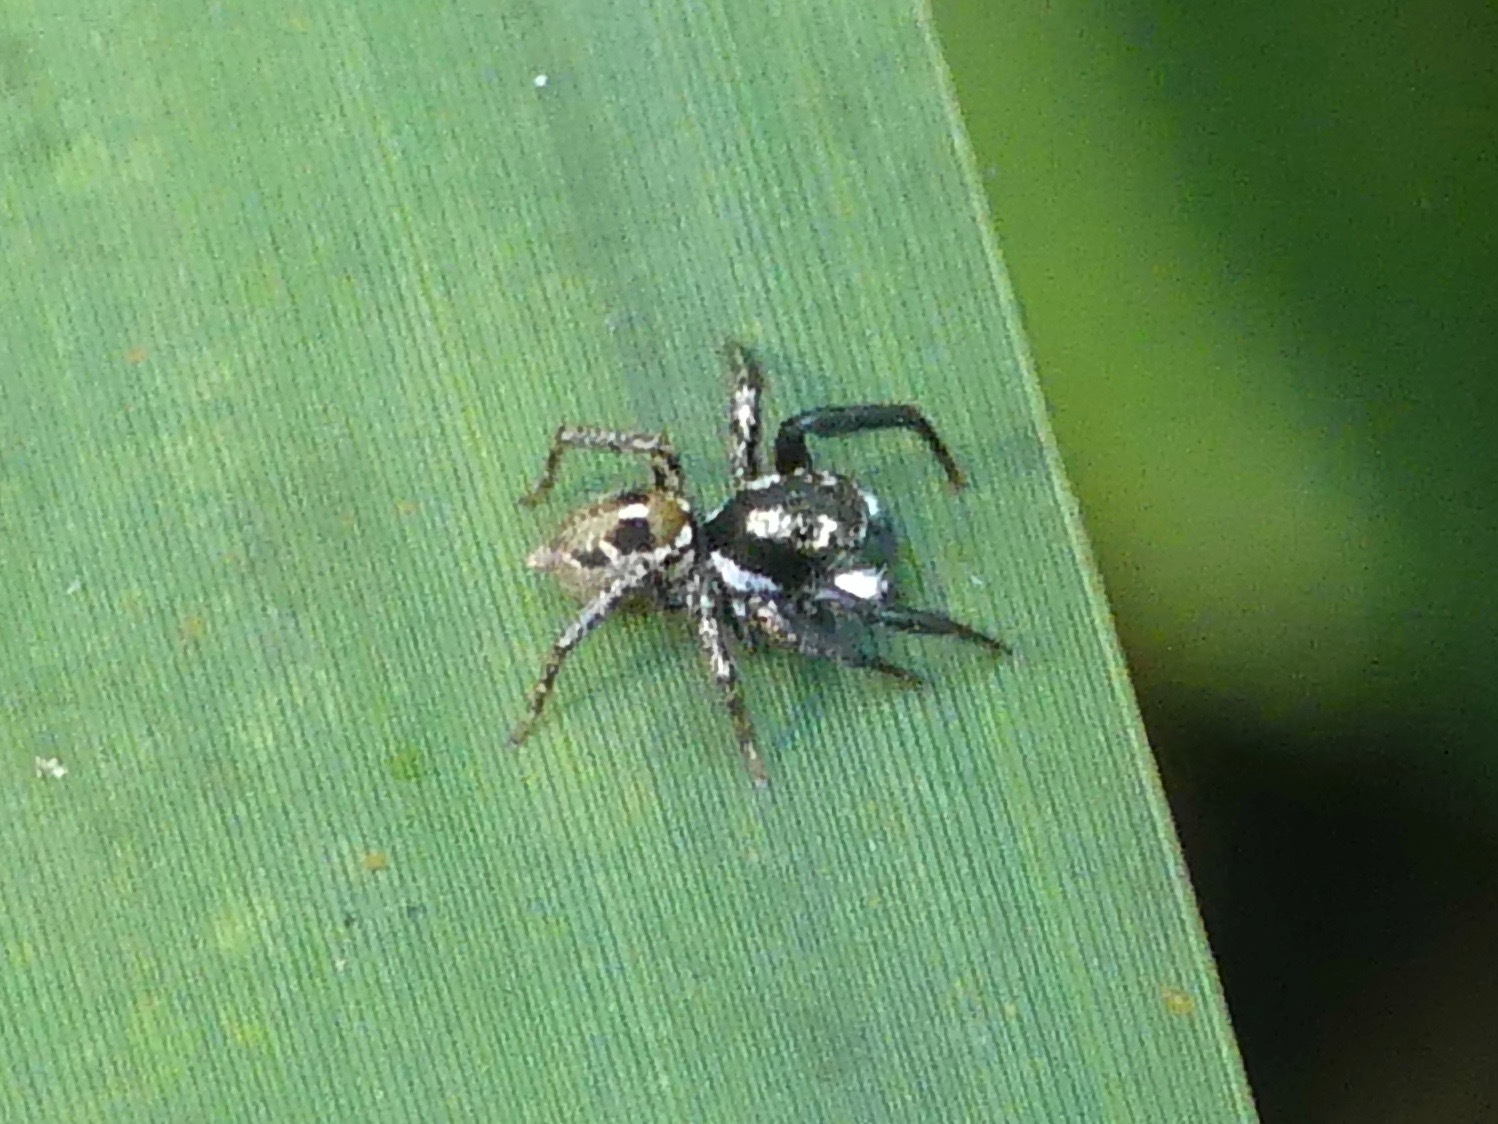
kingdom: Animalia
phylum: Arthropoda
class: Arachnida
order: Araneae
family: Salticidae
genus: Anasaitis
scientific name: Anasaitis canosa
